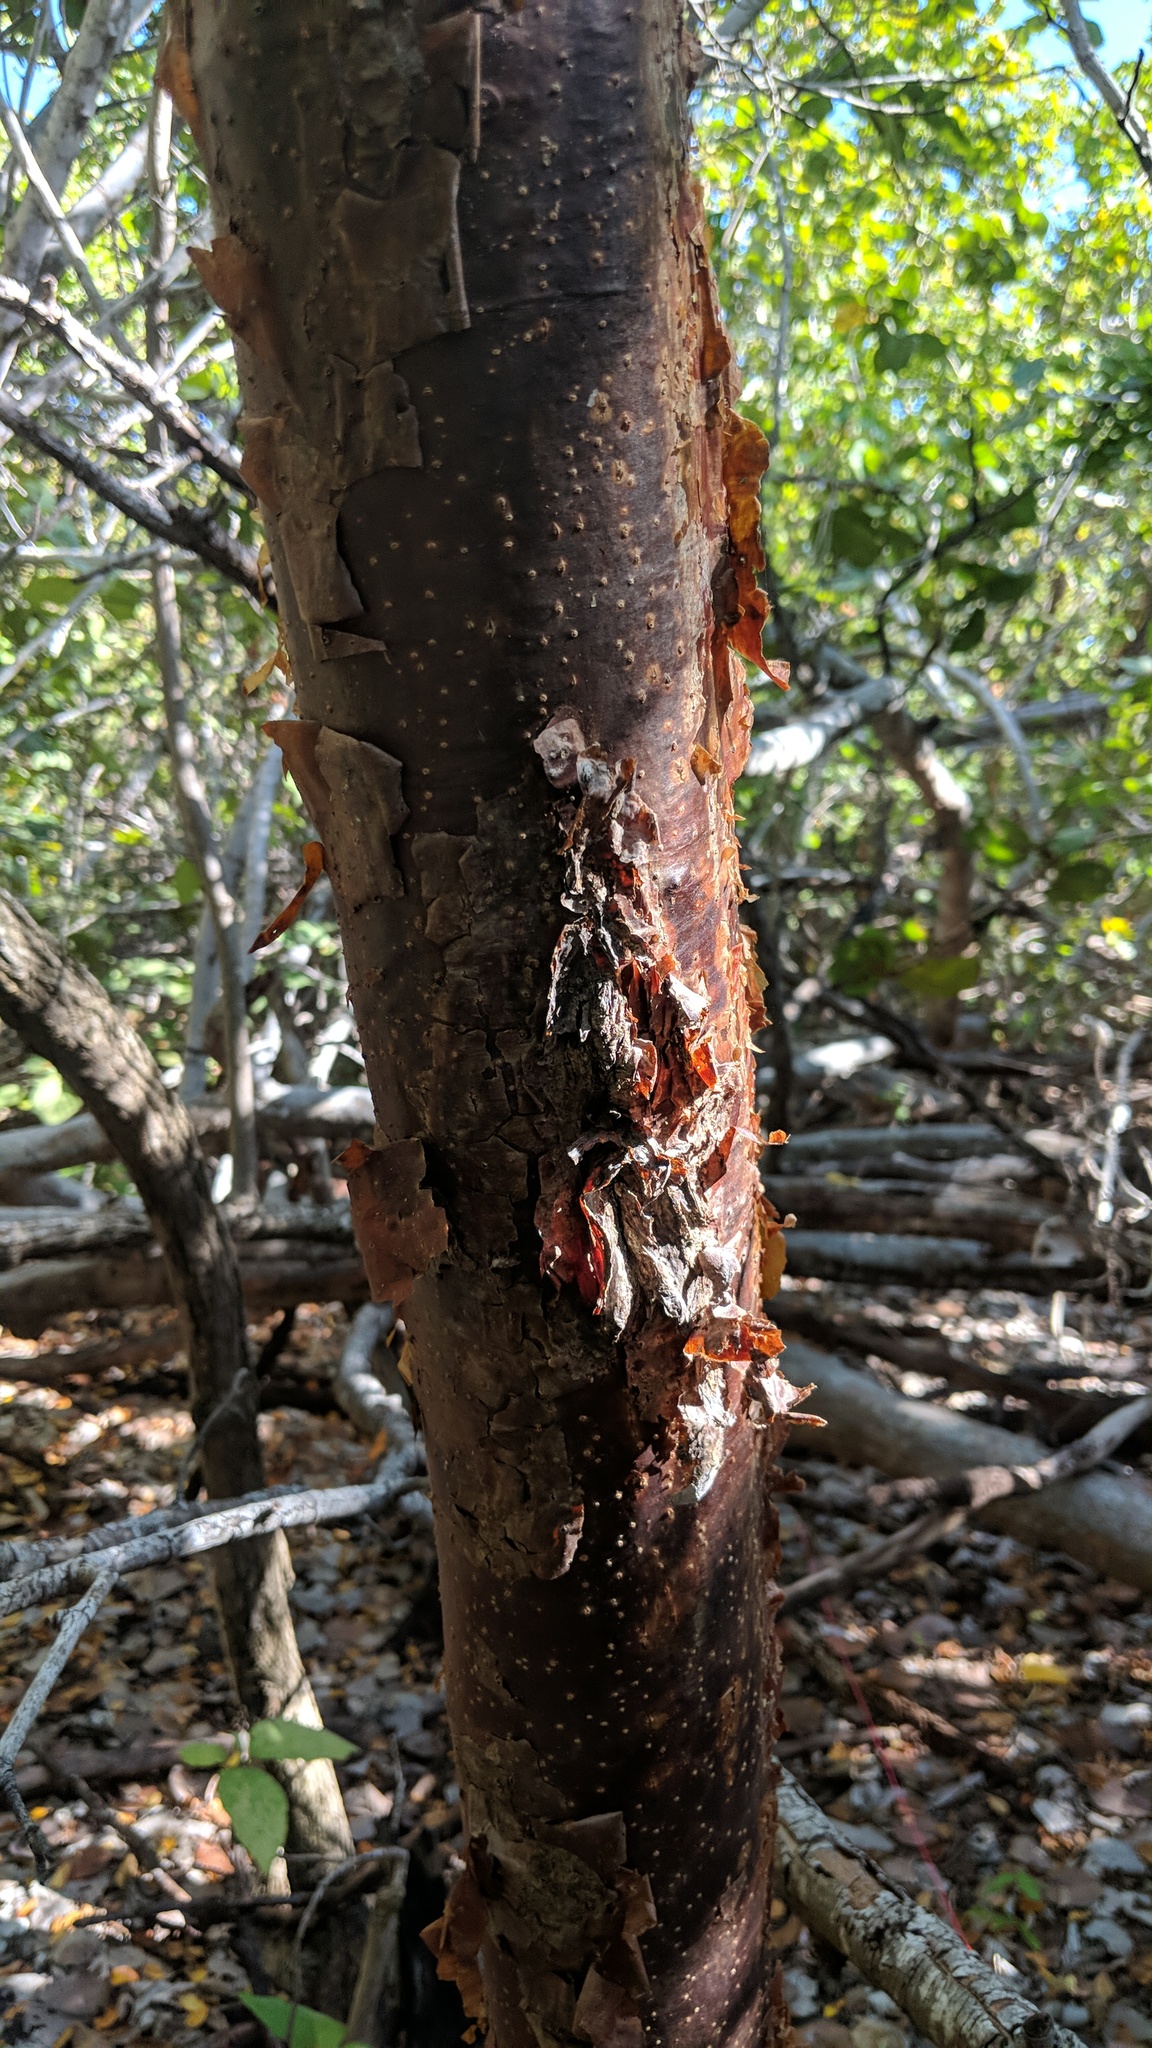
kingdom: Plantae
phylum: Tracheophyta
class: Magnoliopsida
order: Sapindales
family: Burseraceae
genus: Bursera
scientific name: Bursera simaruba
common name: Turpentine tree
